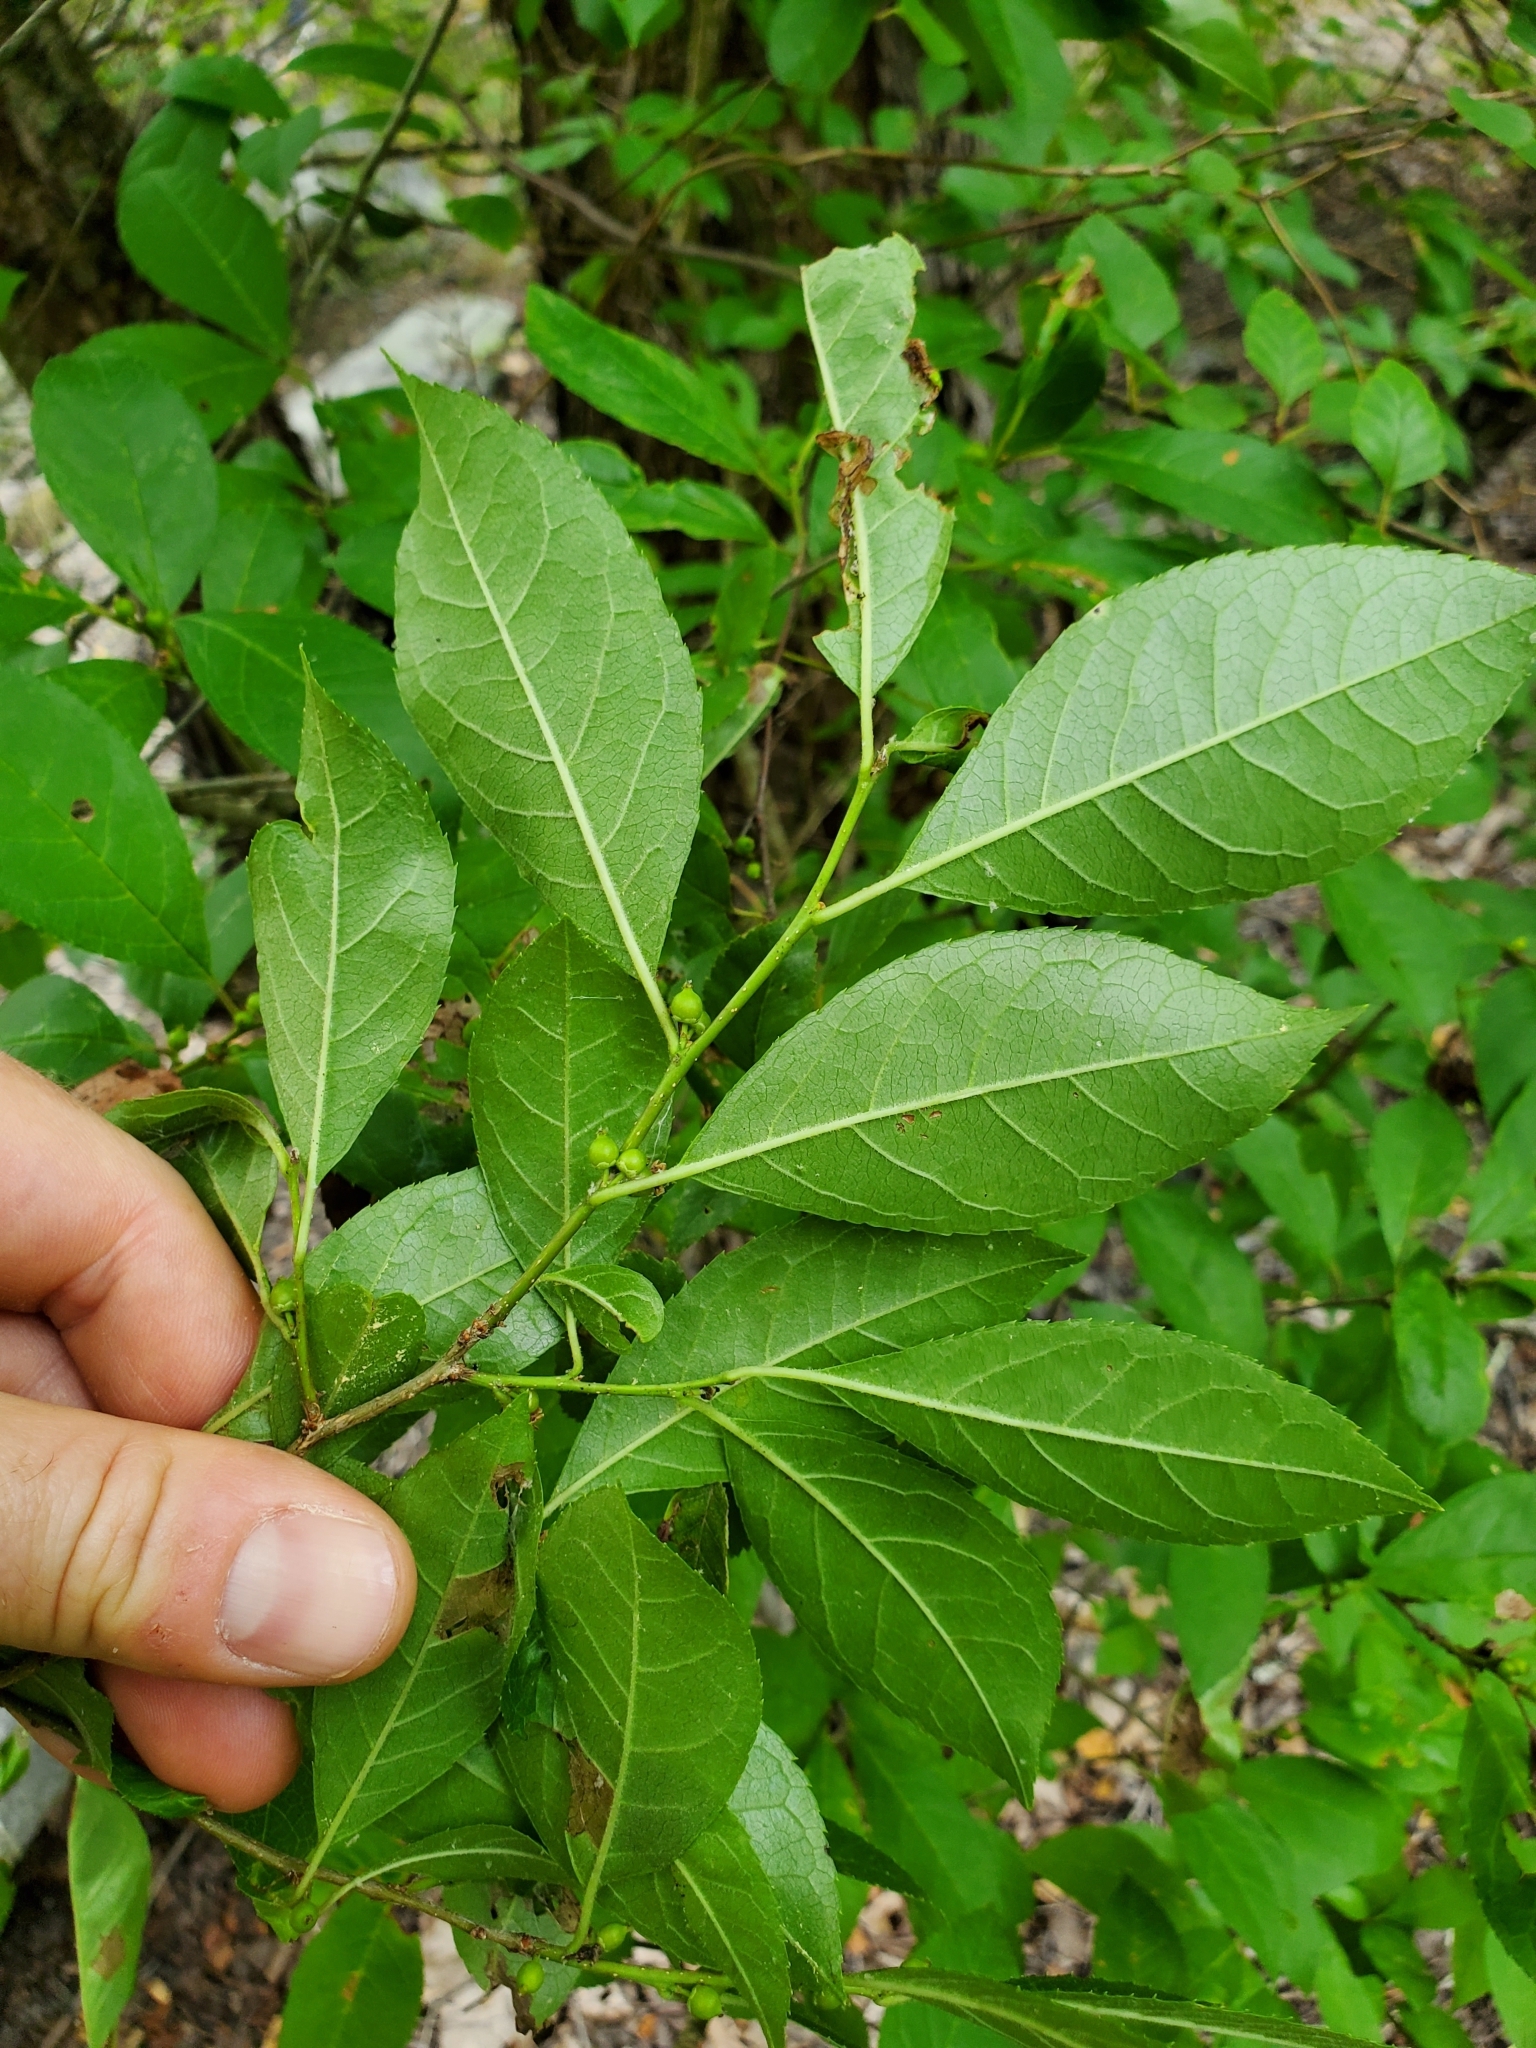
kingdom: Plantae
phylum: Tracheophyta
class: Magnoliopsida
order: Aquifoliales
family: Aquifoliaceae
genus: Ilex
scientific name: Ilex verticillata
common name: Virginia winterberry
